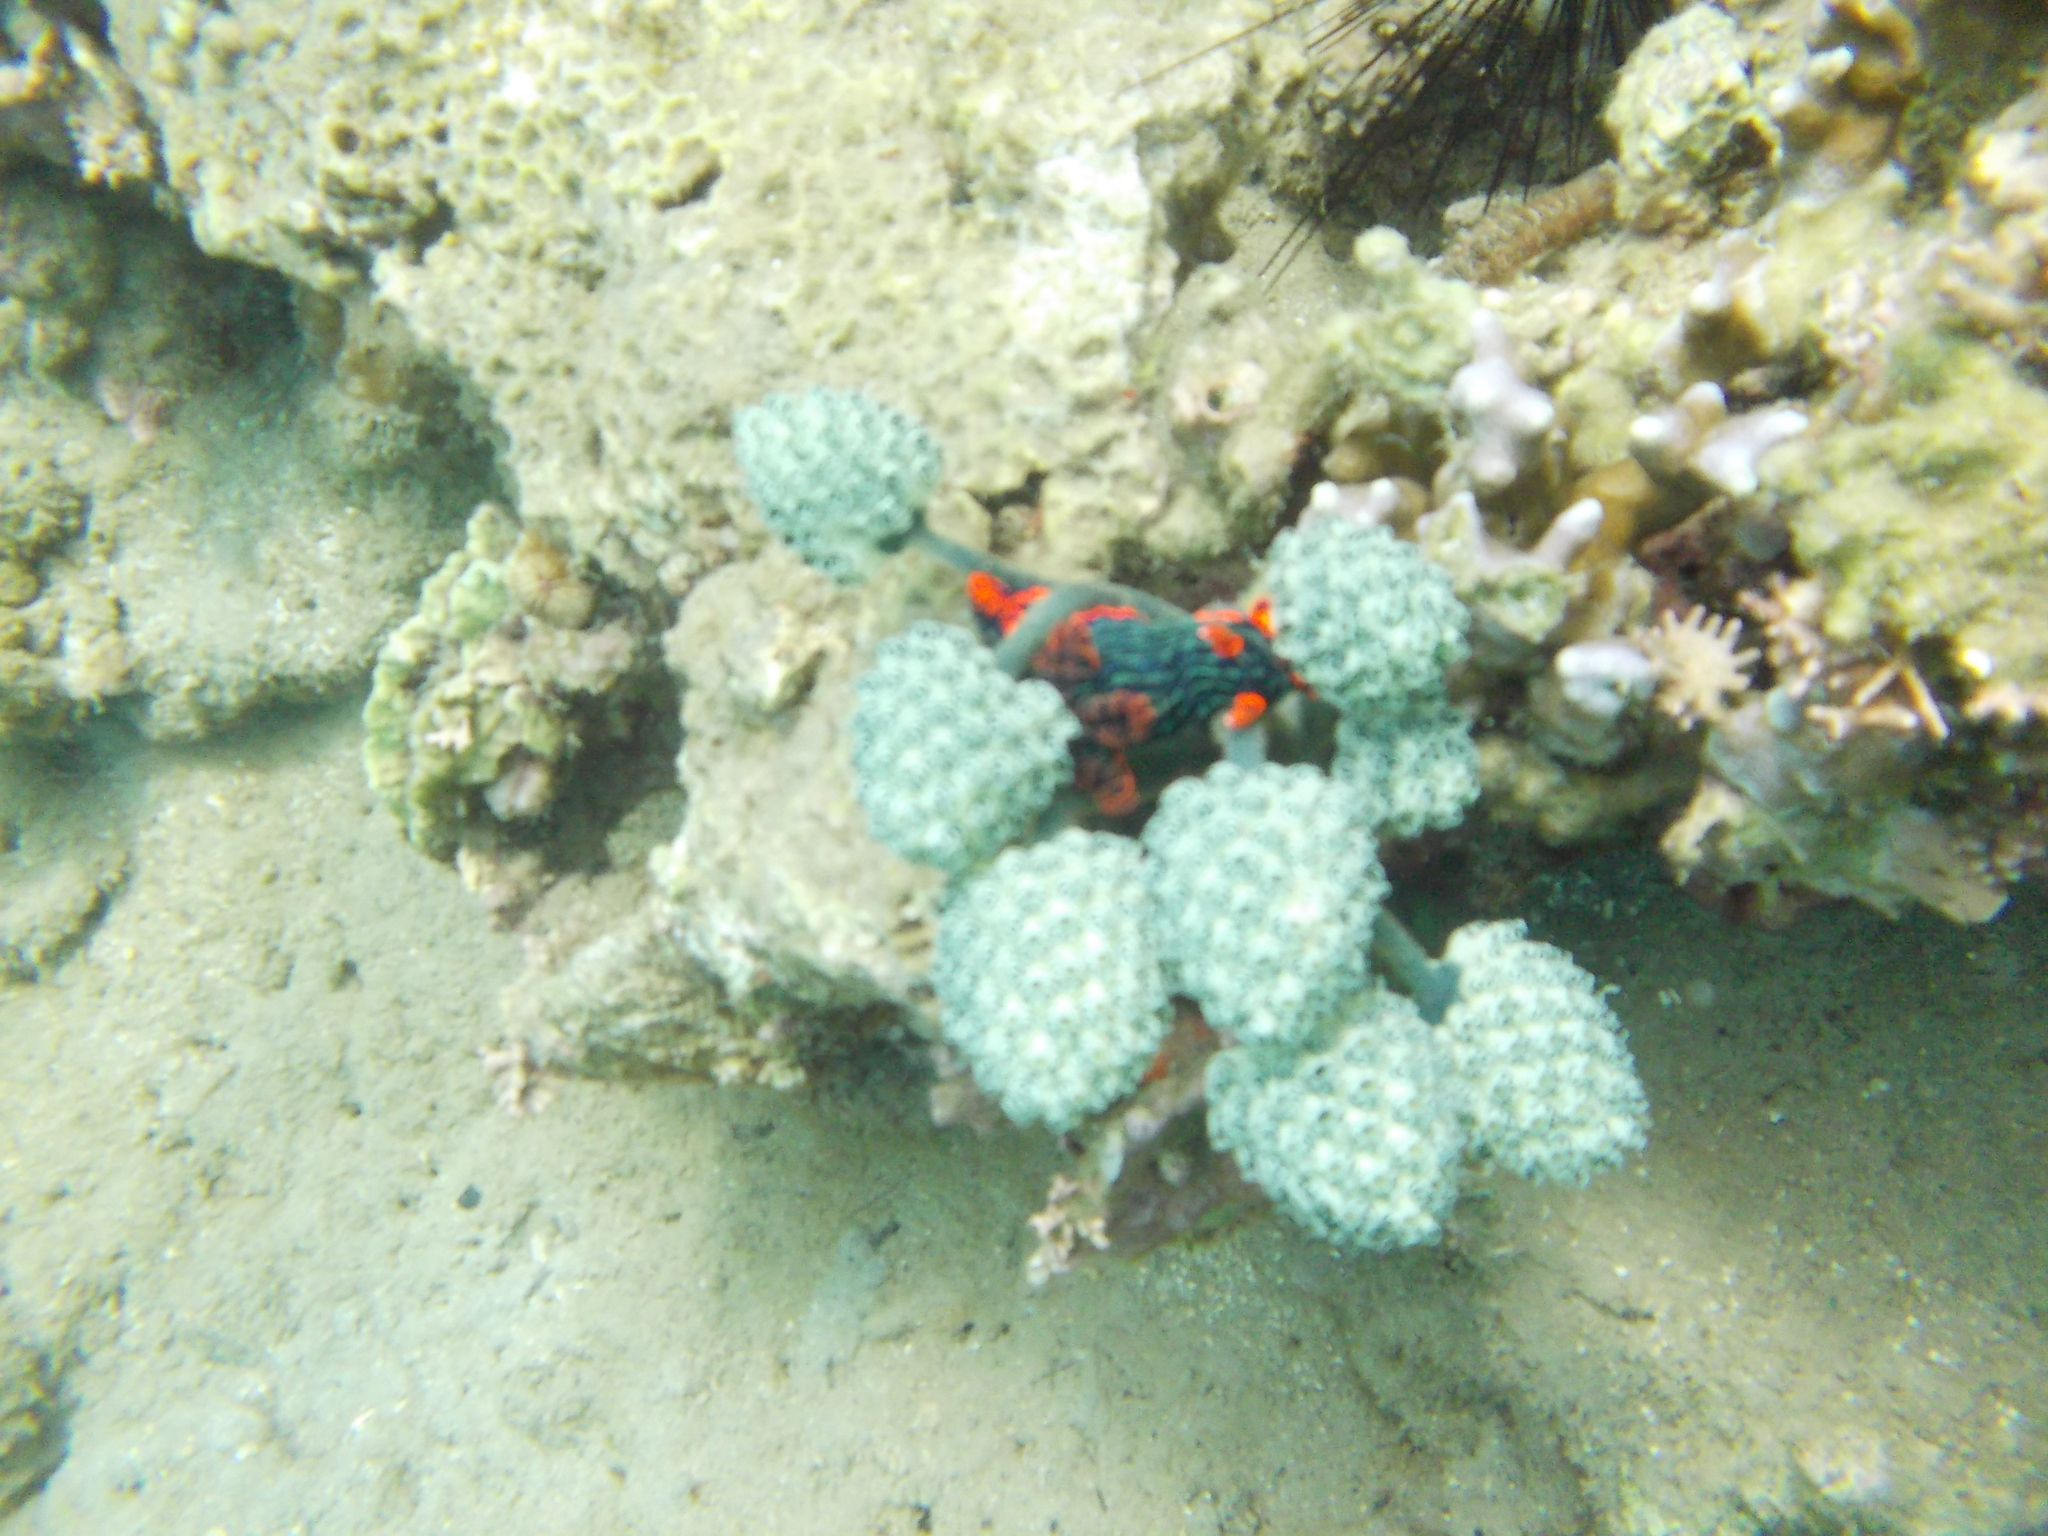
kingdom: Animalia
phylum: Mollusca
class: Gastropoda
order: Nudibranchia
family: Polyceridae
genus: Nembrotha
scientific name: Nembrotha kubaryana
